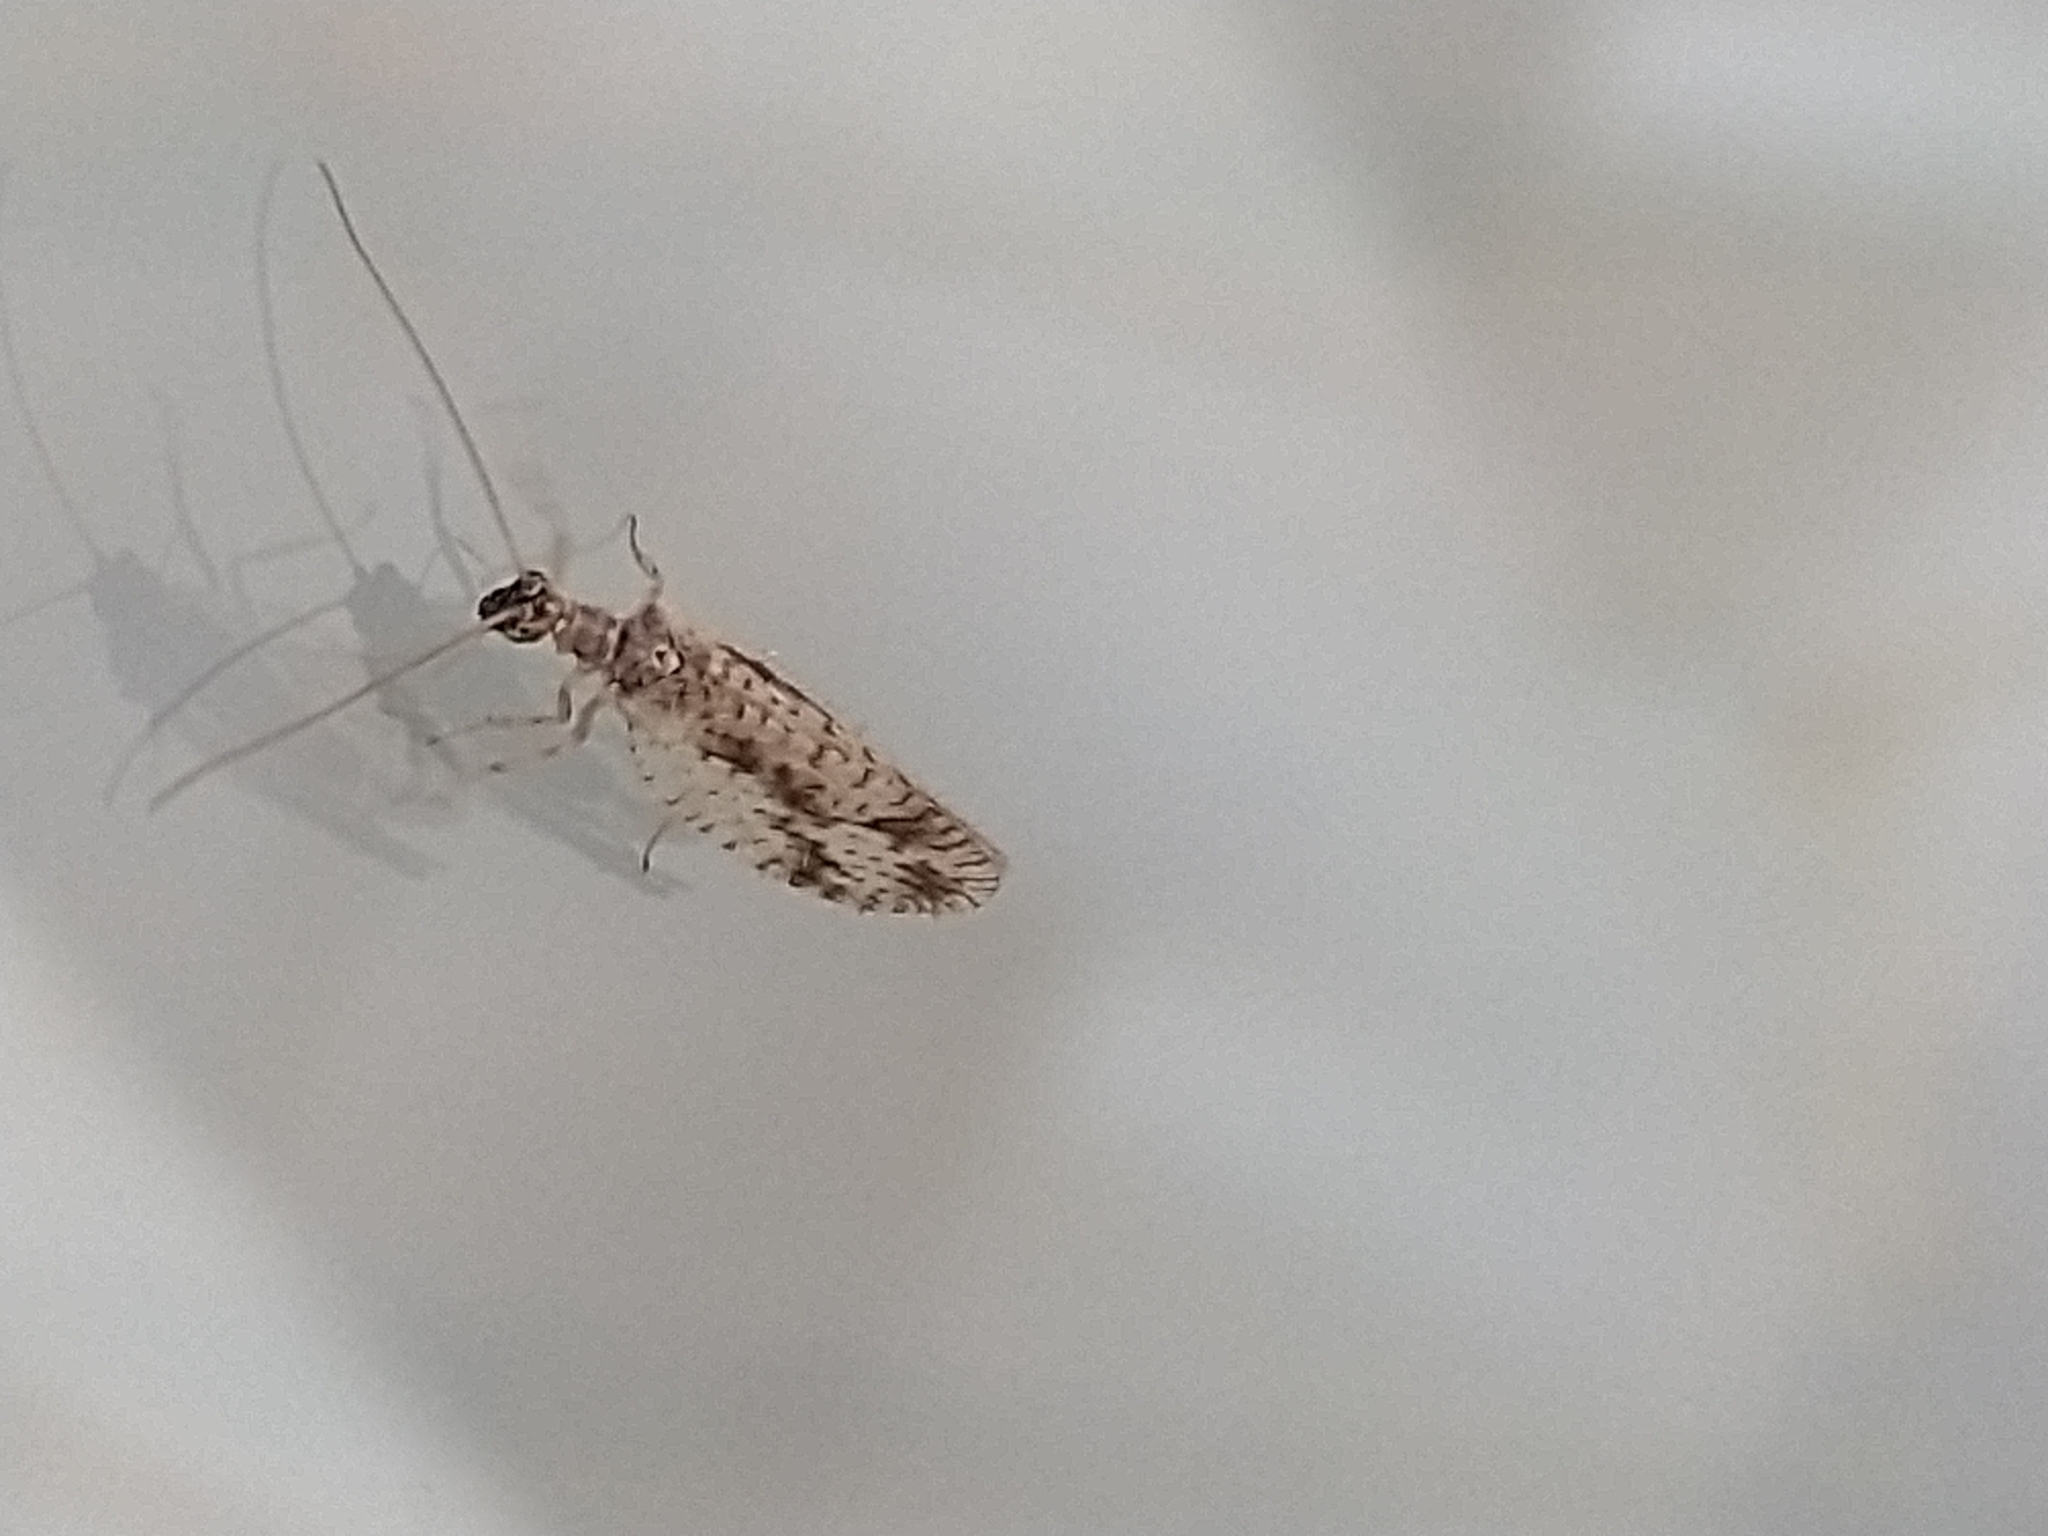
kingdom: Animalia
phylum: Arthropoda
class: Insecta
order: Neuroptera
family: Hemerobiidae
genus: Micromus
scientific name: Micromus variegatus
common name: Brown lacewing
